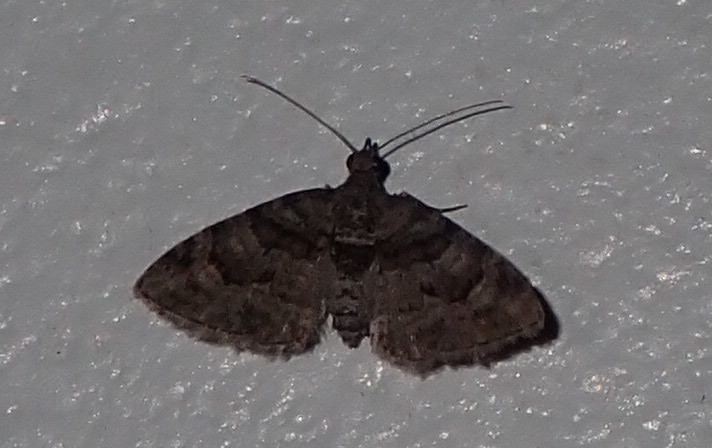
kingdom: Animalia
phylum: Arthropoda
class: Insecta
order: Lepidoptera
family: Geometridae
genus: Phrissogonus
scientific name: Phrissogonus laticostata
